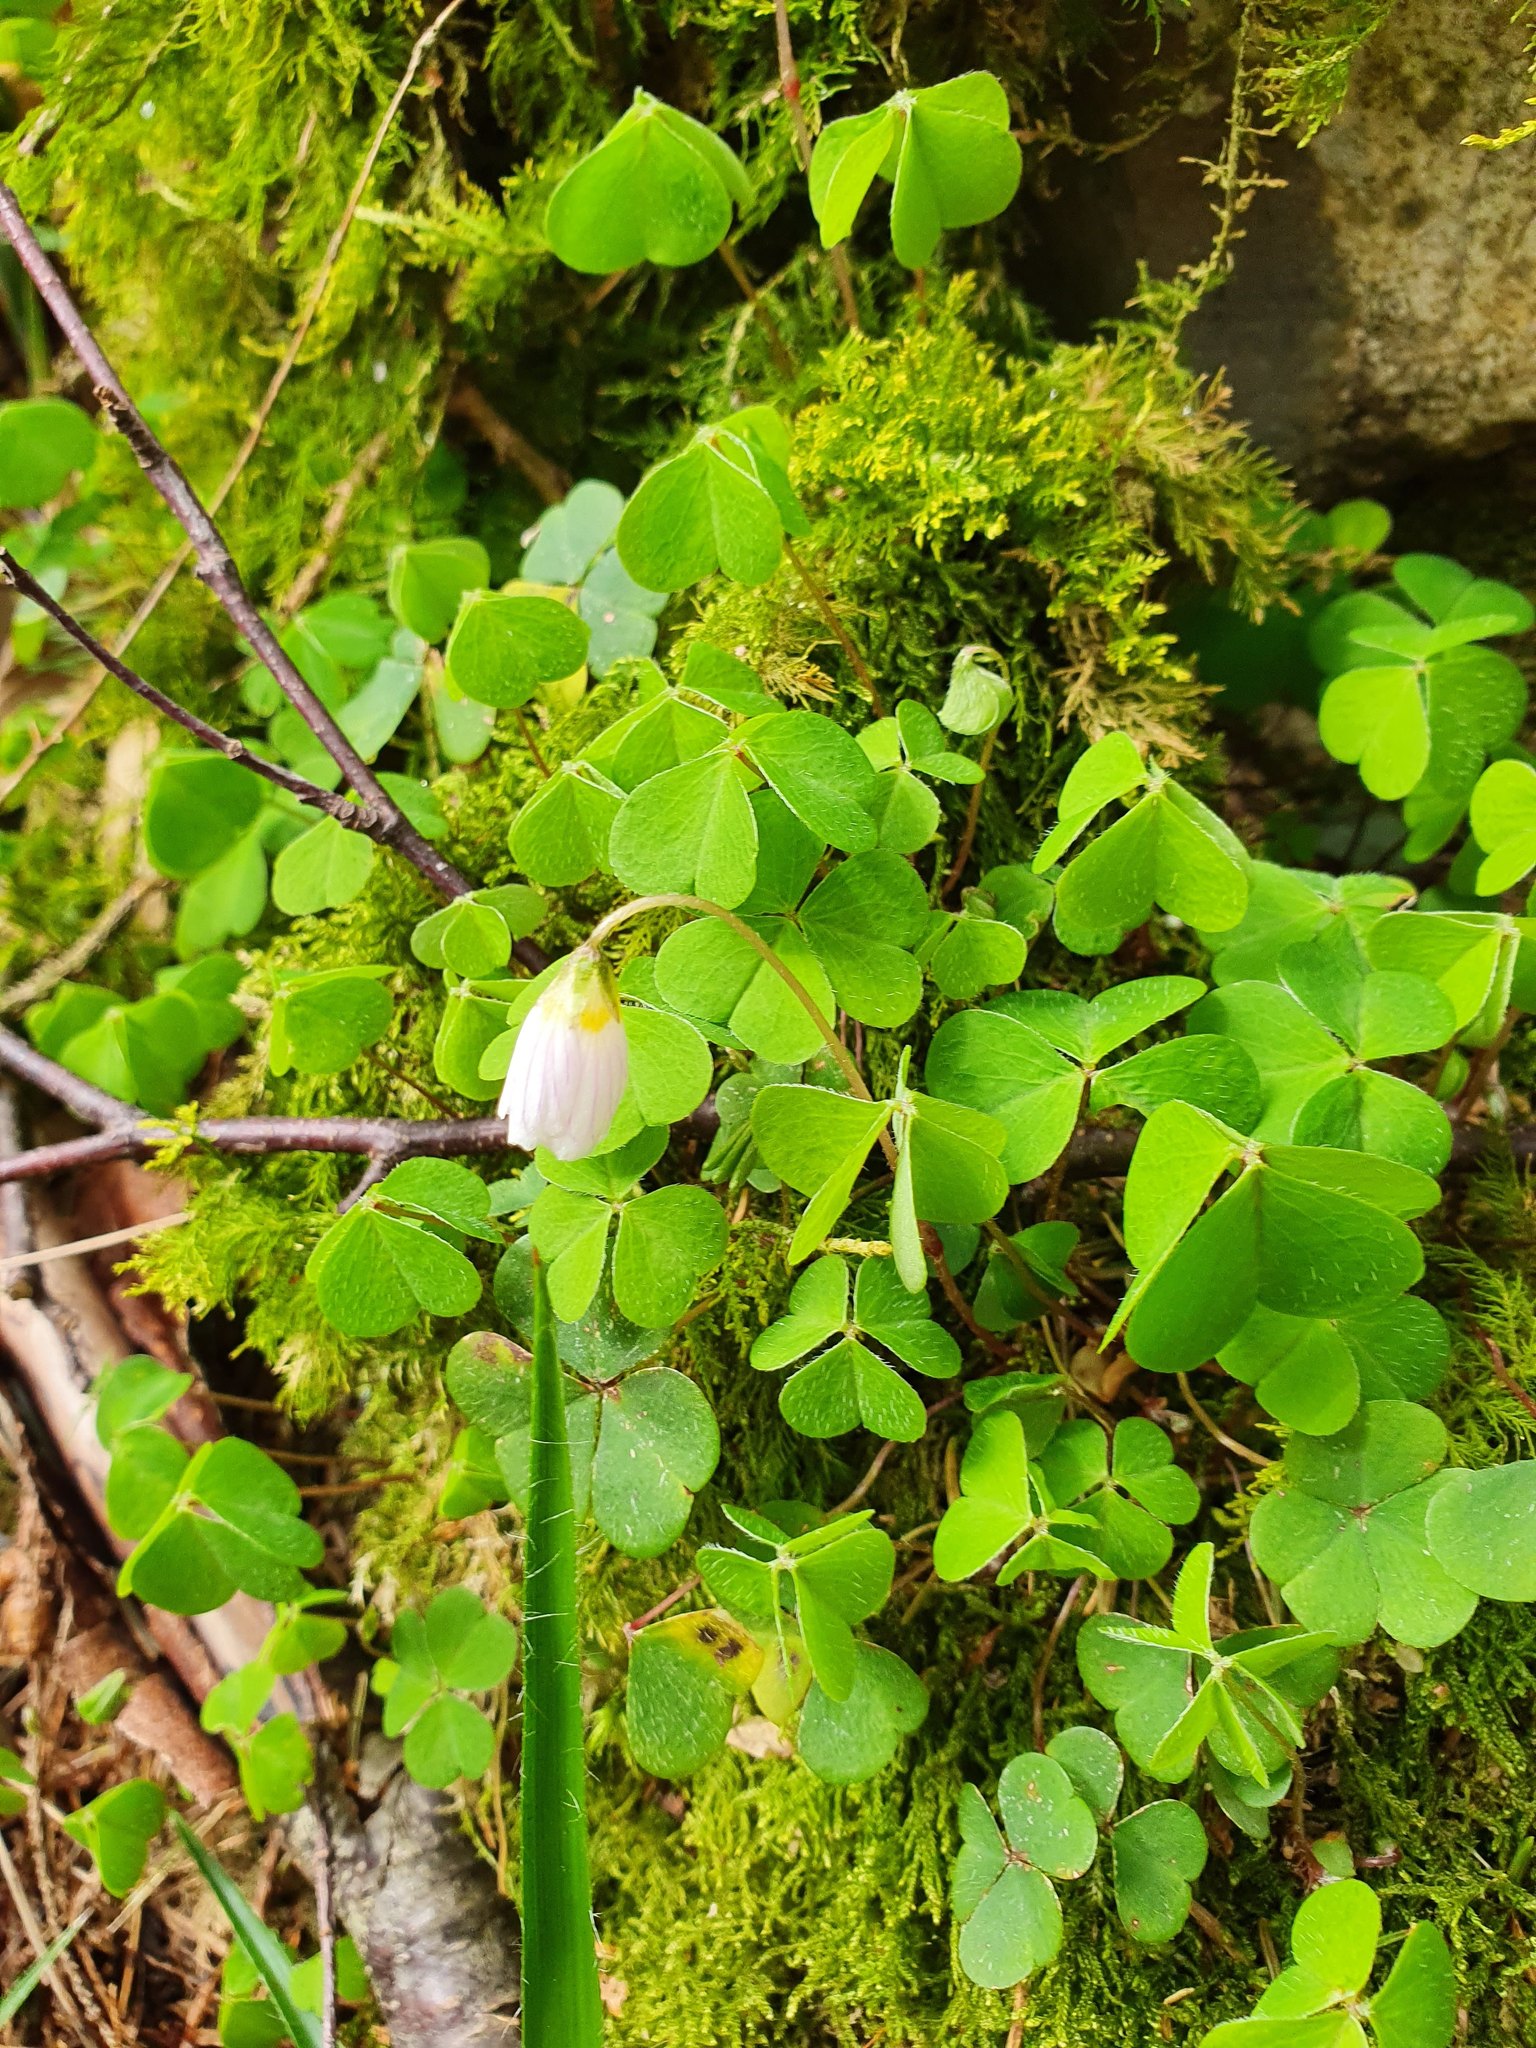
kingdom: Plantae
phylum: Tracheophyta
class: Magnoliopsida
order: Oxalidales
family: Oxalidaceae
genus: Oxalis
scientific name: Oxalis acetosella
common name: Wood-sorrel
